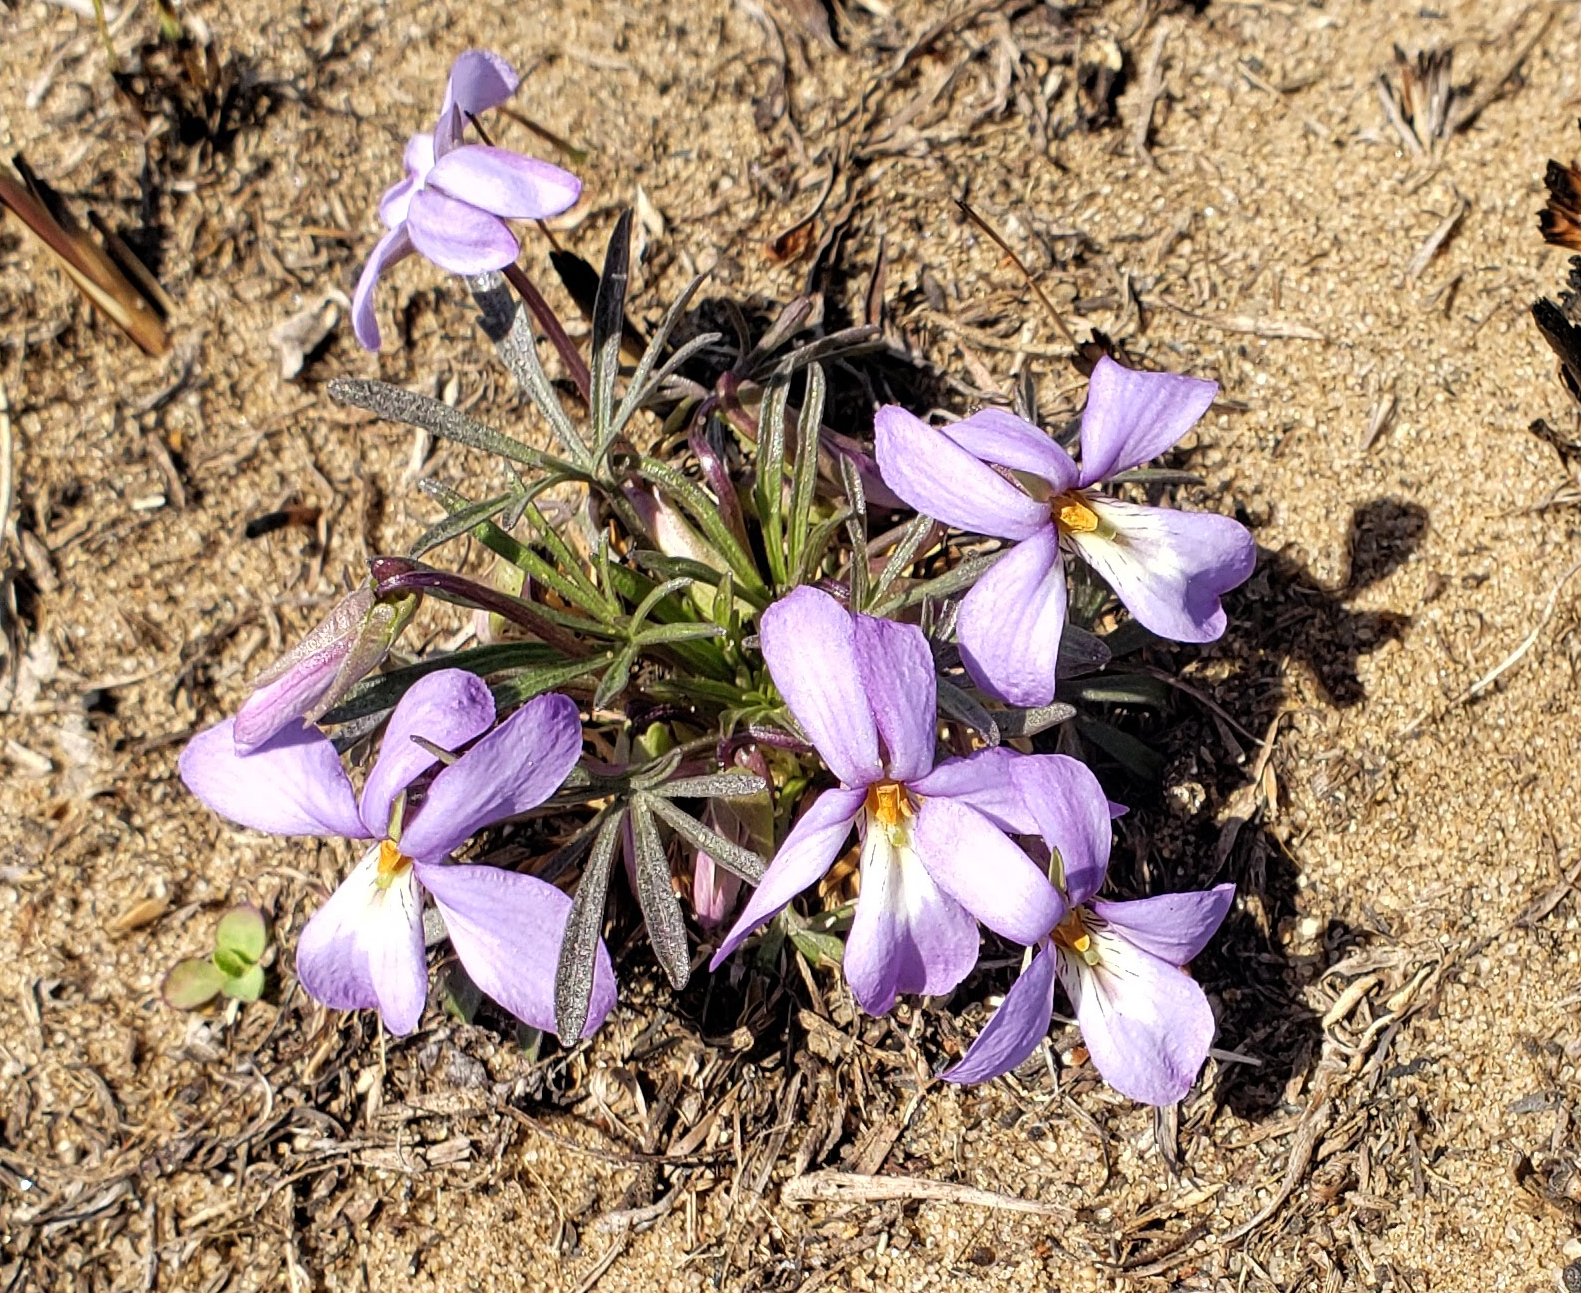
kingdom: Plantae
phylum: Tracheophyta
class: Magnoliopsida
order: Malpighiales
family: Violaceae
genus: Viola
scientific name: Viola pedata
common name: Pansy violet
